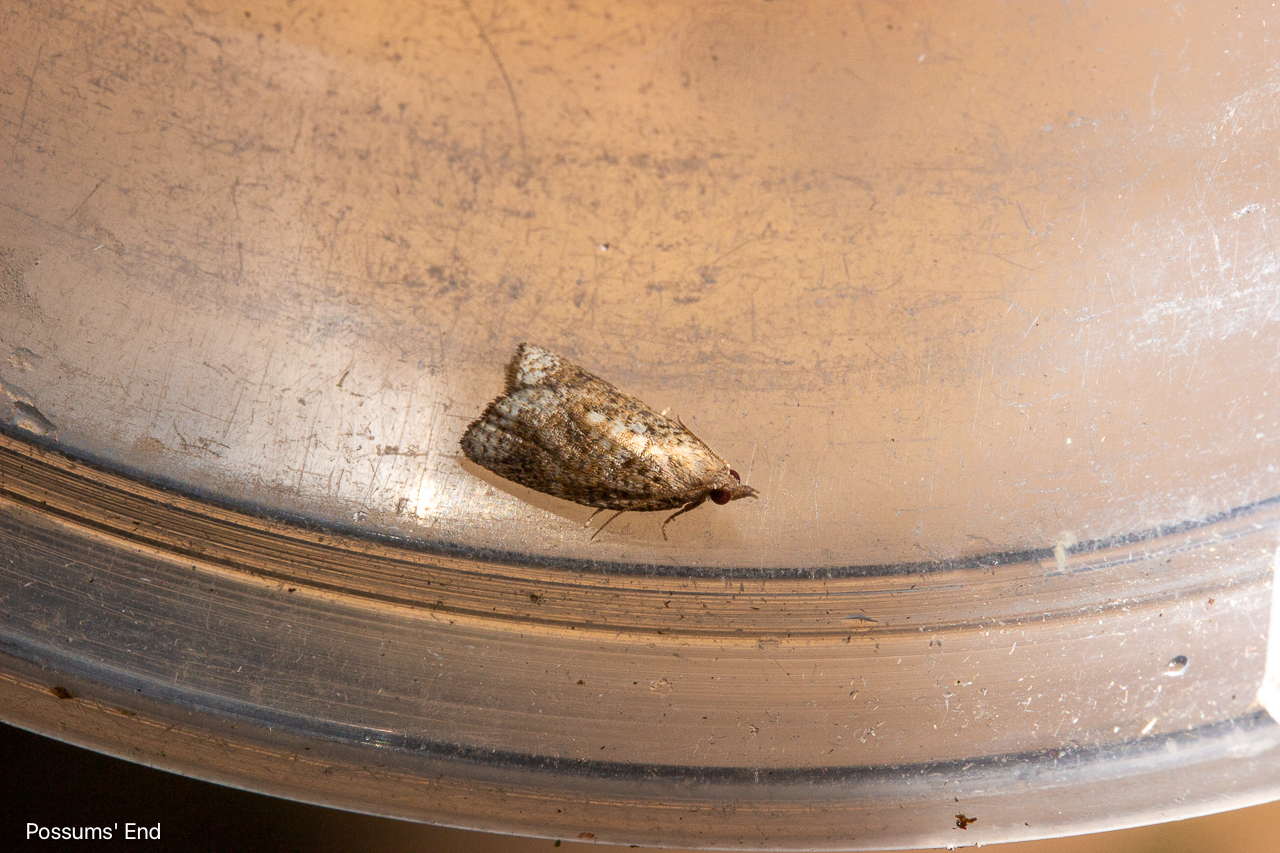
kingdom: Animalia
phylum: Arthropoda
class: Insecta
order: Lepidoptera
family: Tortricidae
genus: Catamacta
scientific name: Catamacta gavisana
